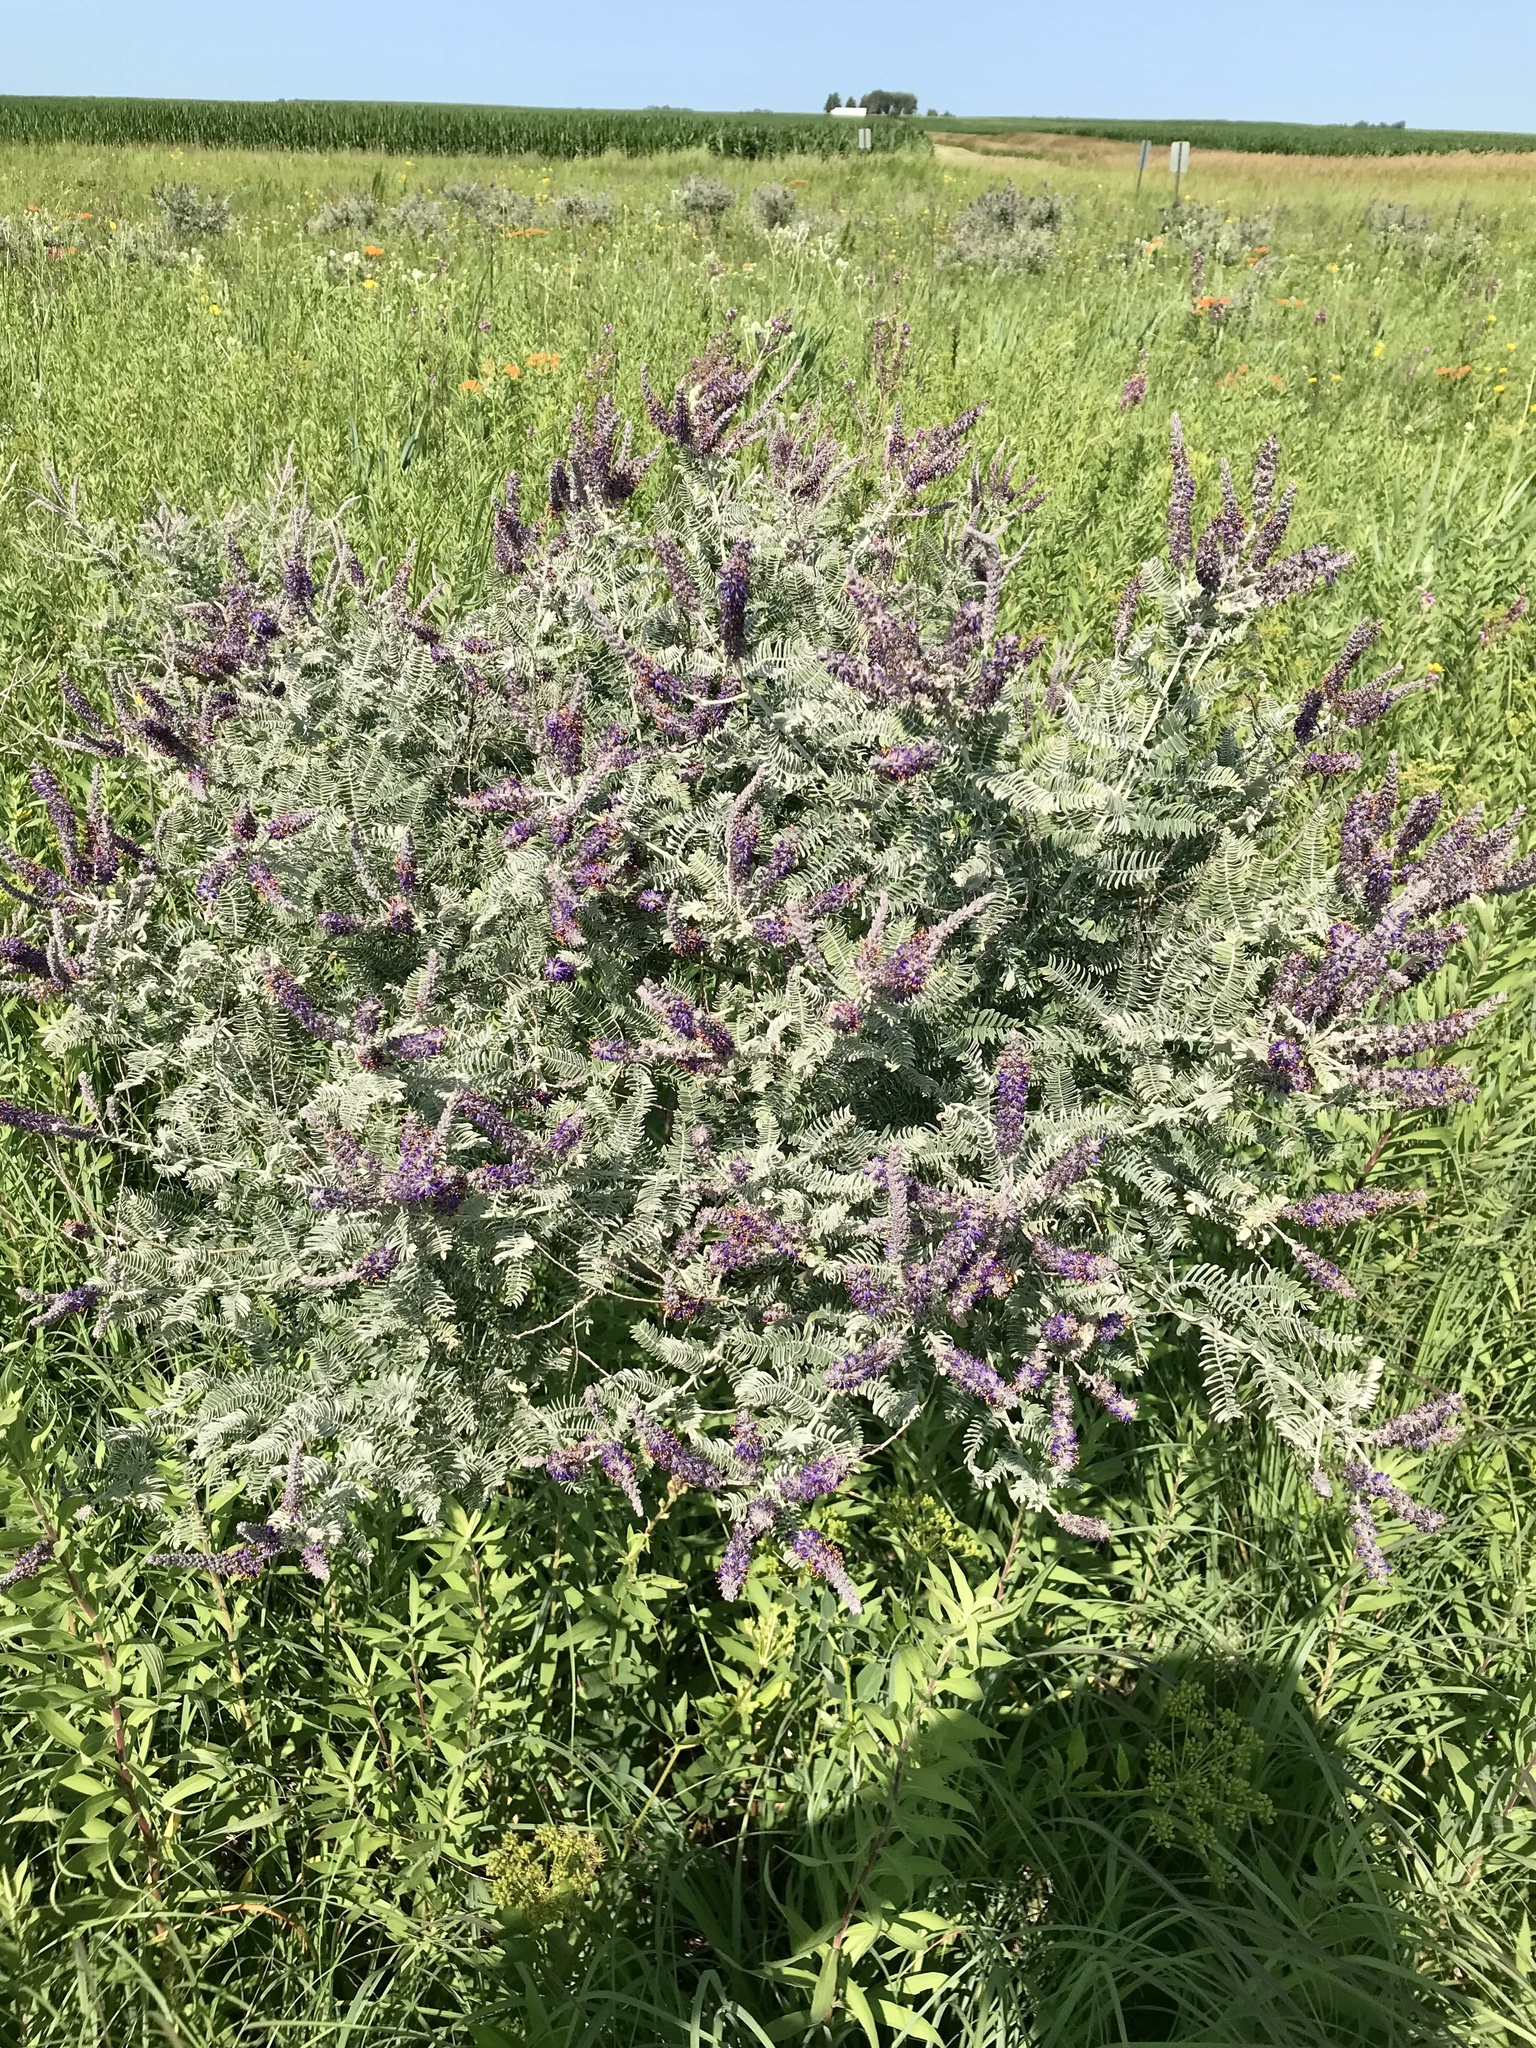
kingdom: Plantae
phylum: Tracheophyta
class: Magnoliopsida
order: Fabales
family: Fabaceae
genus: Amorpha
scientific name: Amorpha canescens
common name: Leadplant
